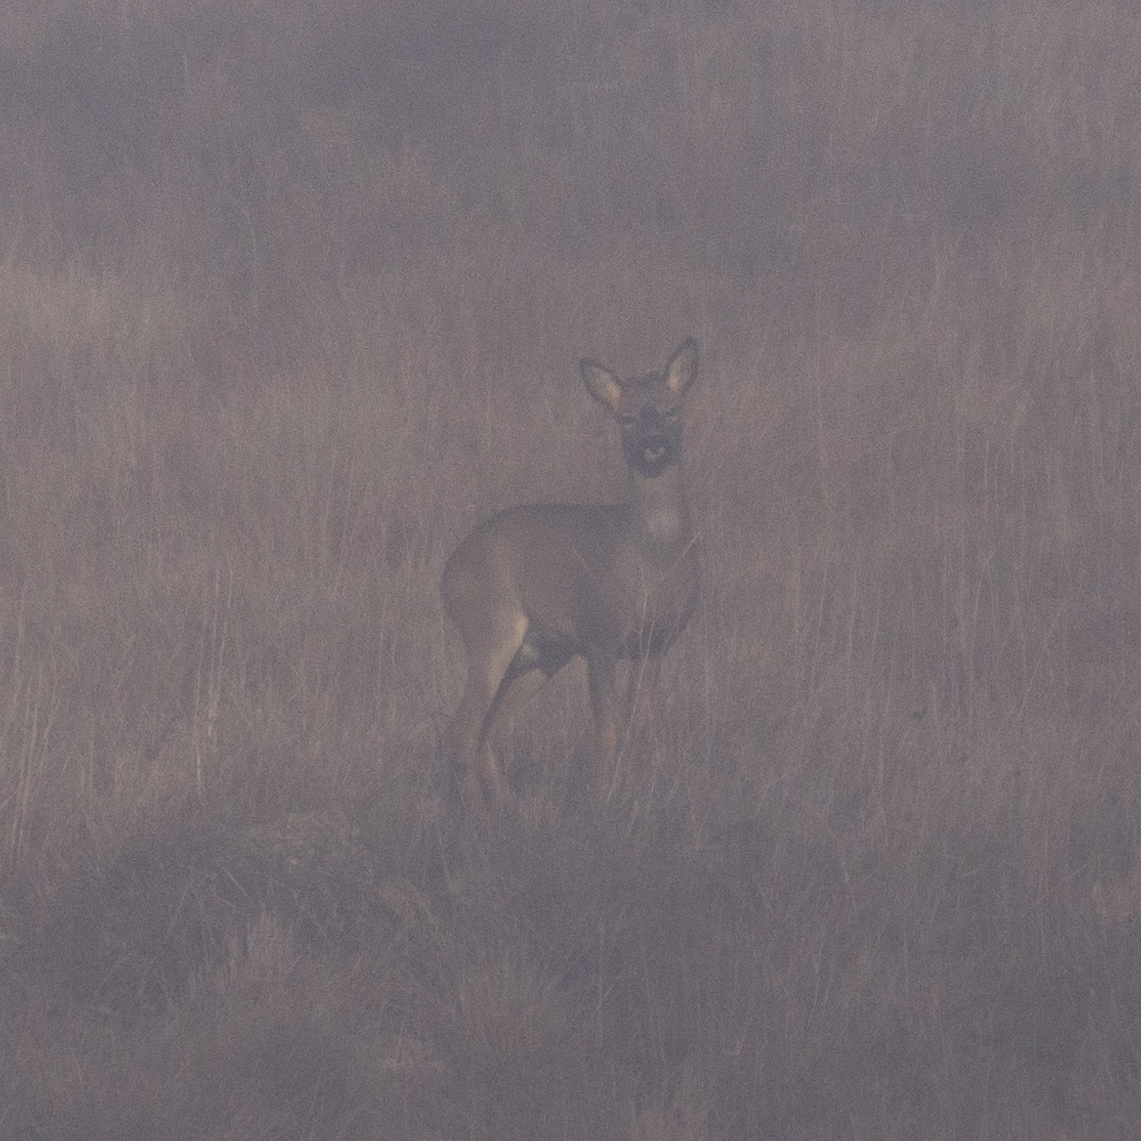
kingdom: Animalia
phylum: Chordata
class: Mammalia
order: Artiodactyla
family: Cervidae
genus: Capreolus
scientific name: Capreolus capreolus
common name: Western roe deer
